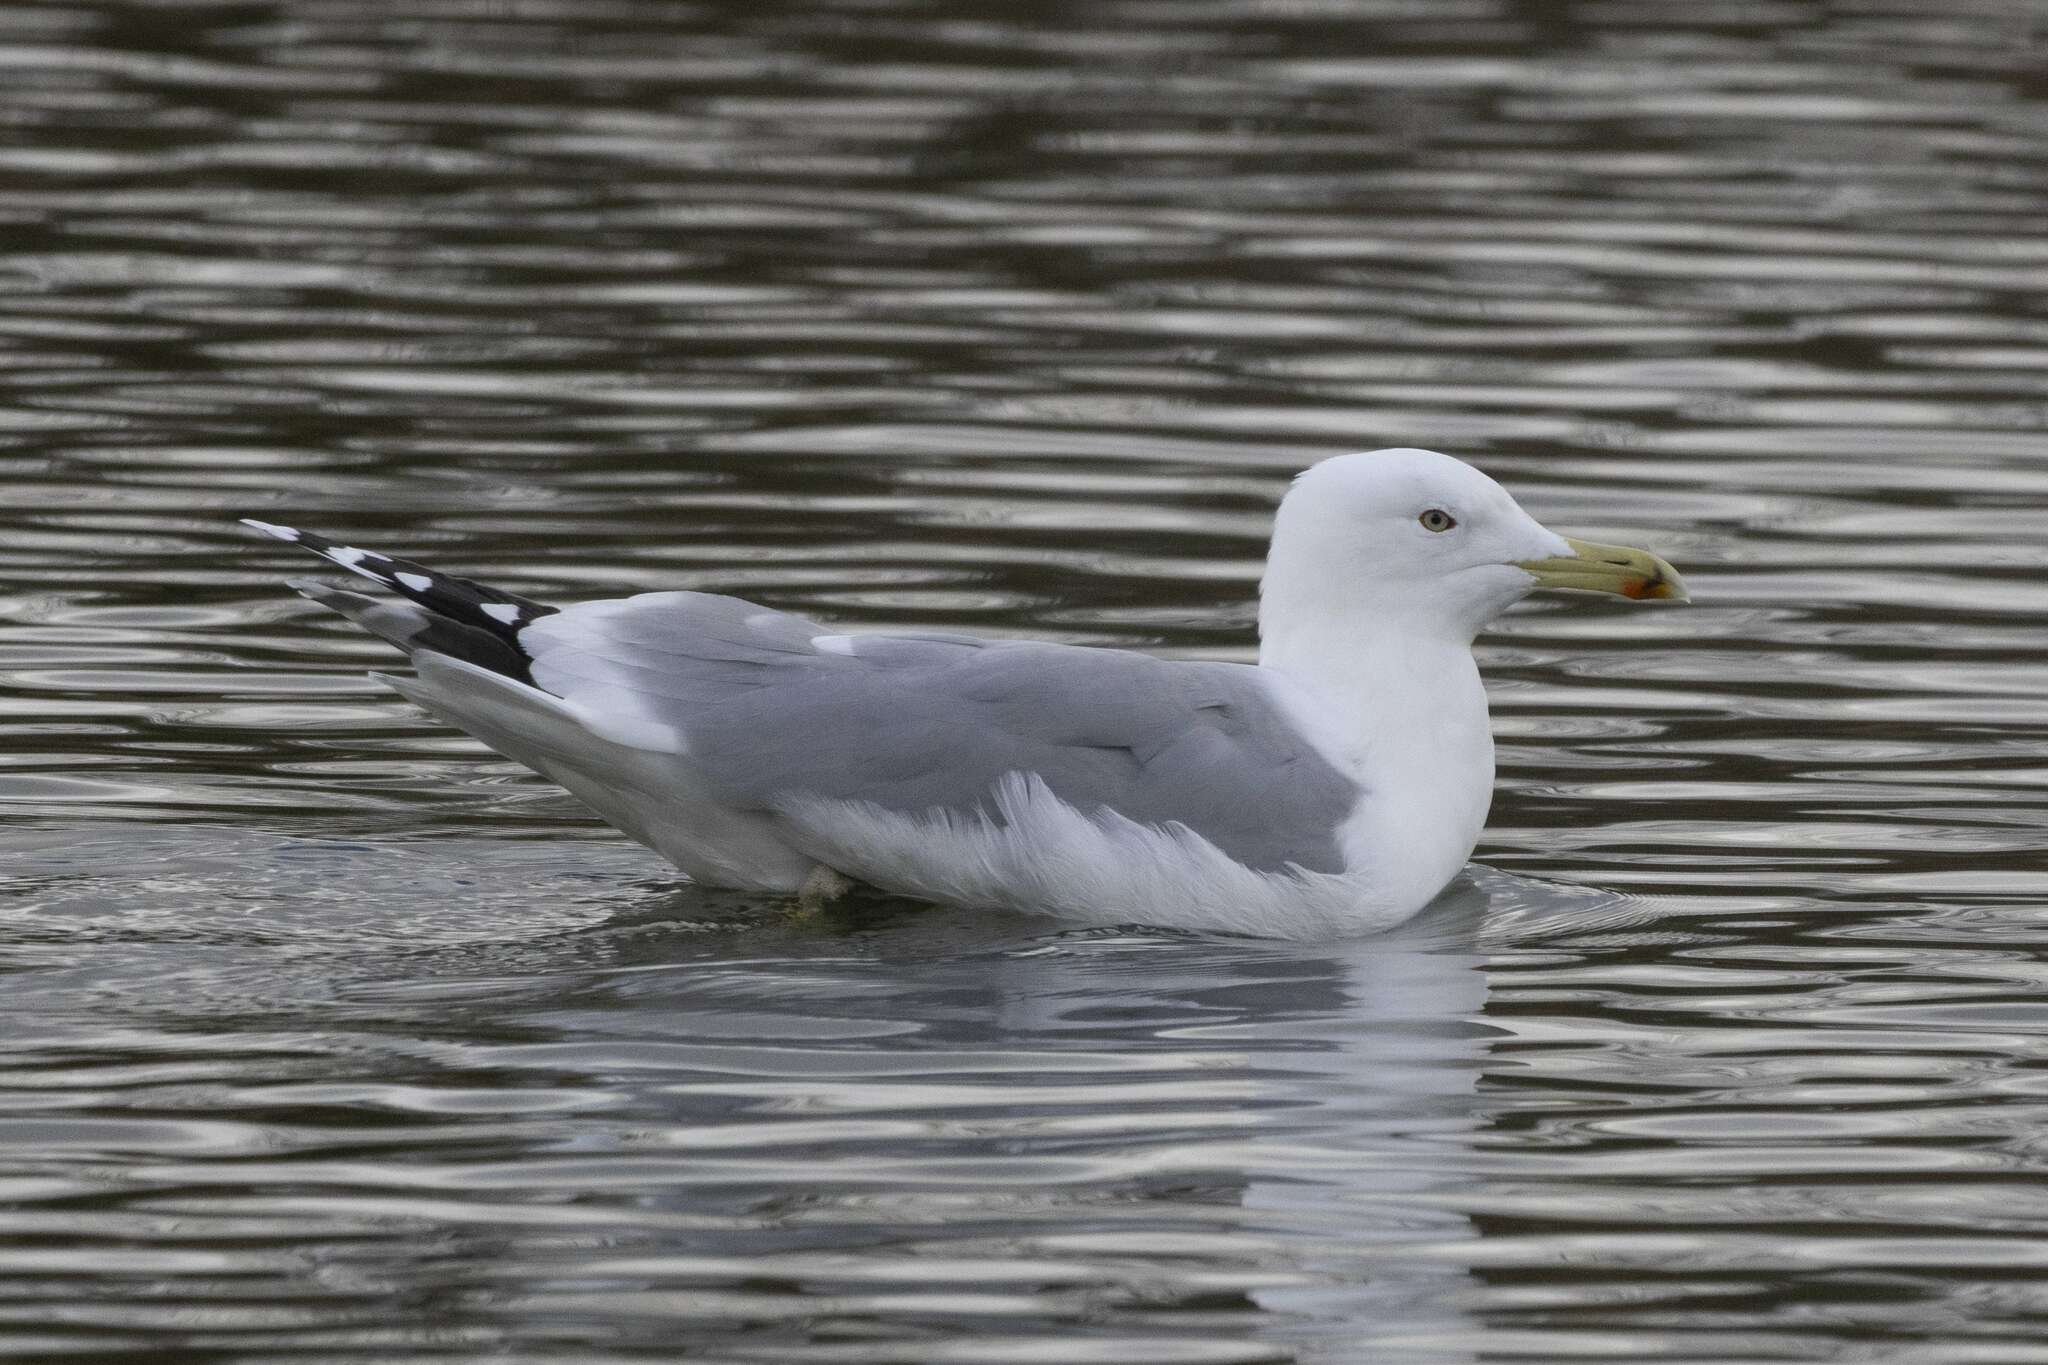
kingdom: Animalia
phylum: Chordata
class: Aves
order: Charadriiformes
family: Laridae
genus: Larus
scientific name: Larus cachinnans
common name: Caspian gull
